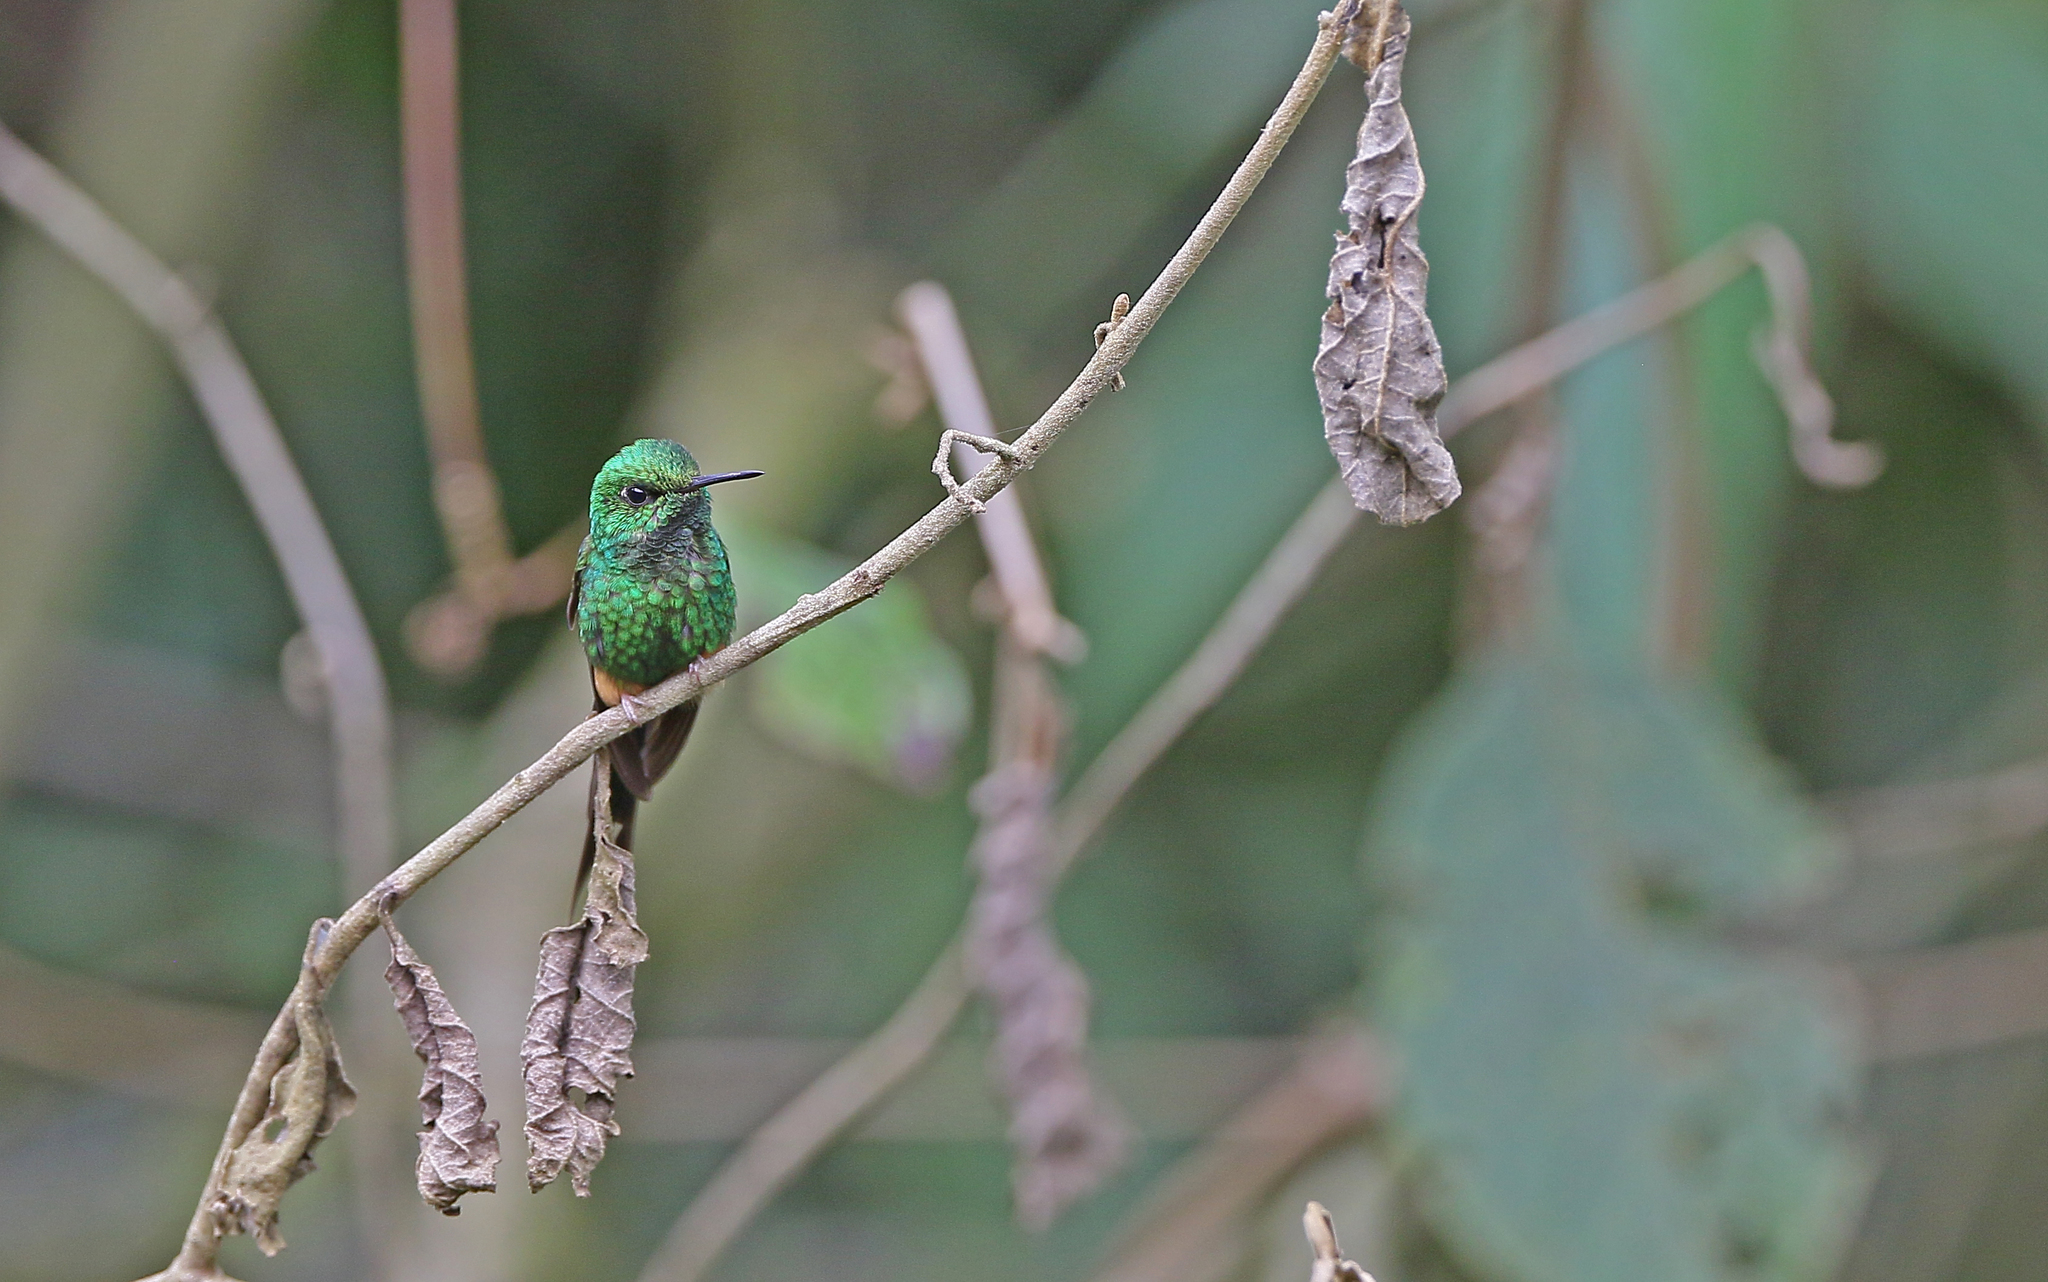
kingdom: Animalia
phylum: Chordata
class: Aves
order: Apodiformes
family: Trochilidae
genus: Ocreatus
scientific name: Ocreatus peruanus
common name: Peruvian racket-tail
